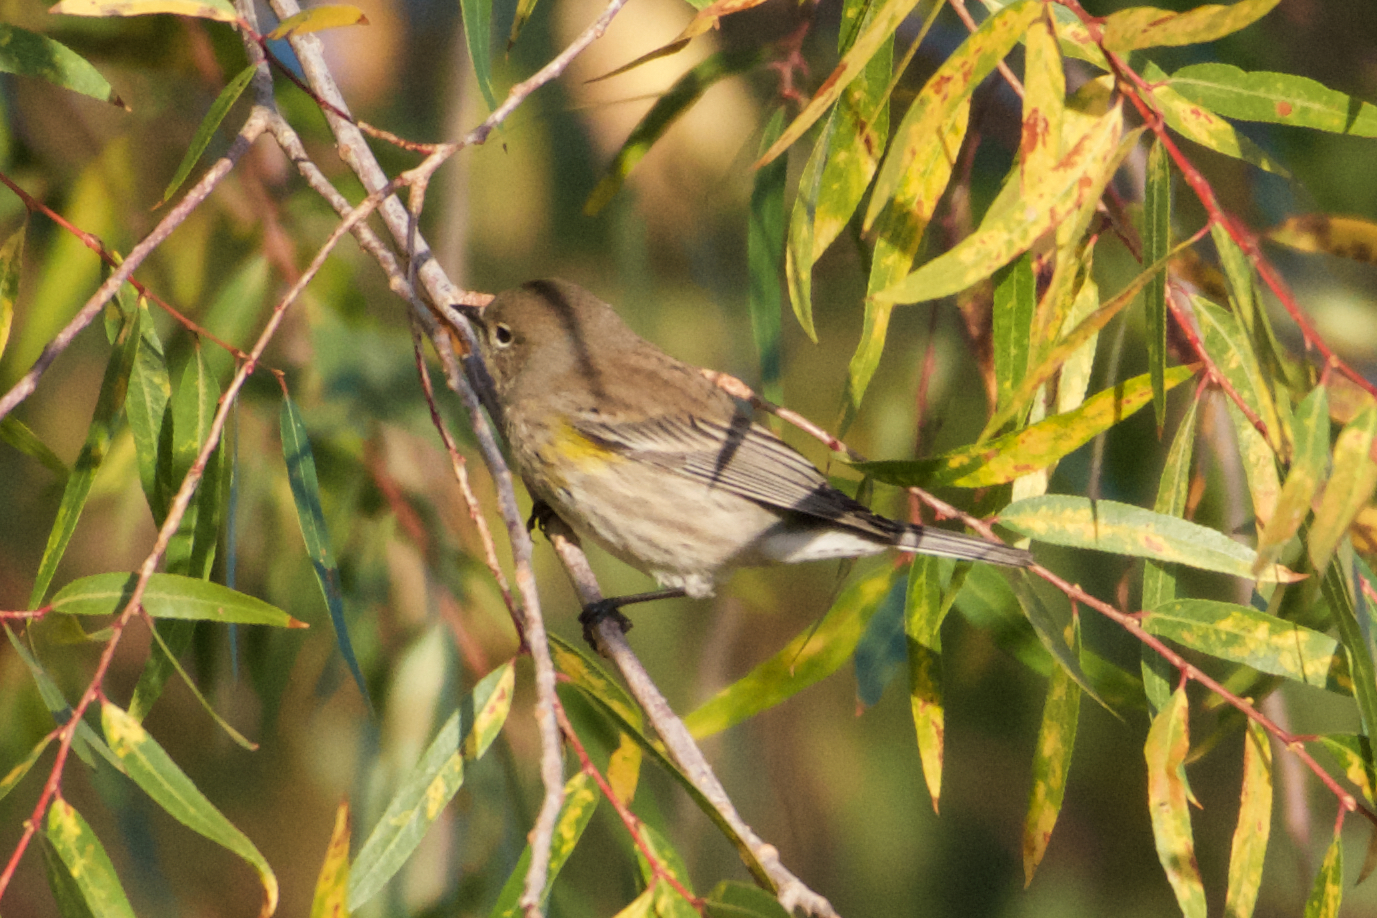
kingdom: Animalia
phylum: Chordata
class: Aves
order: Passeriformes
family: Parulidae
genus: Setophaga
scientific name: Setophaga coronata
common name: Myrtle warbler
